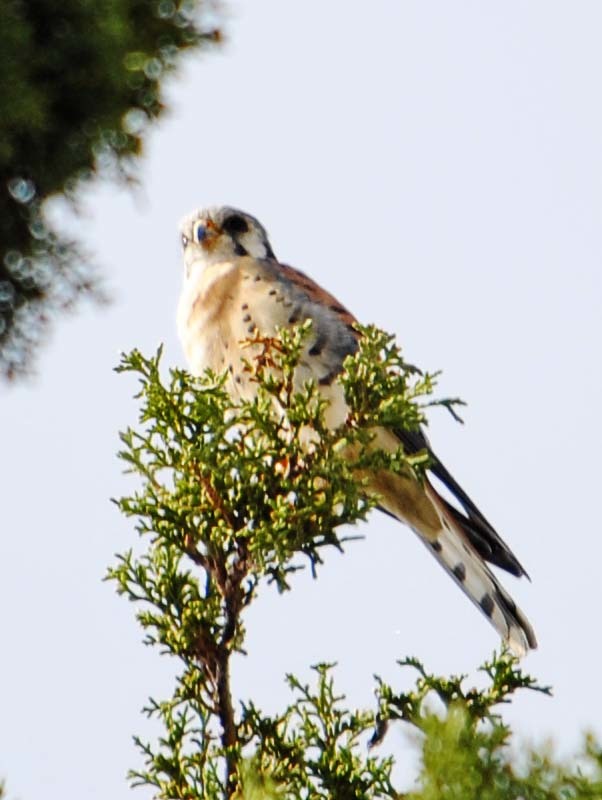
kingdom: Animalia
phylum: Chordata
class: Aves
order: Falconiformes
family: Falconidae
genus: Falco
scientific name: Falco sparverius
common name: American kestrel
